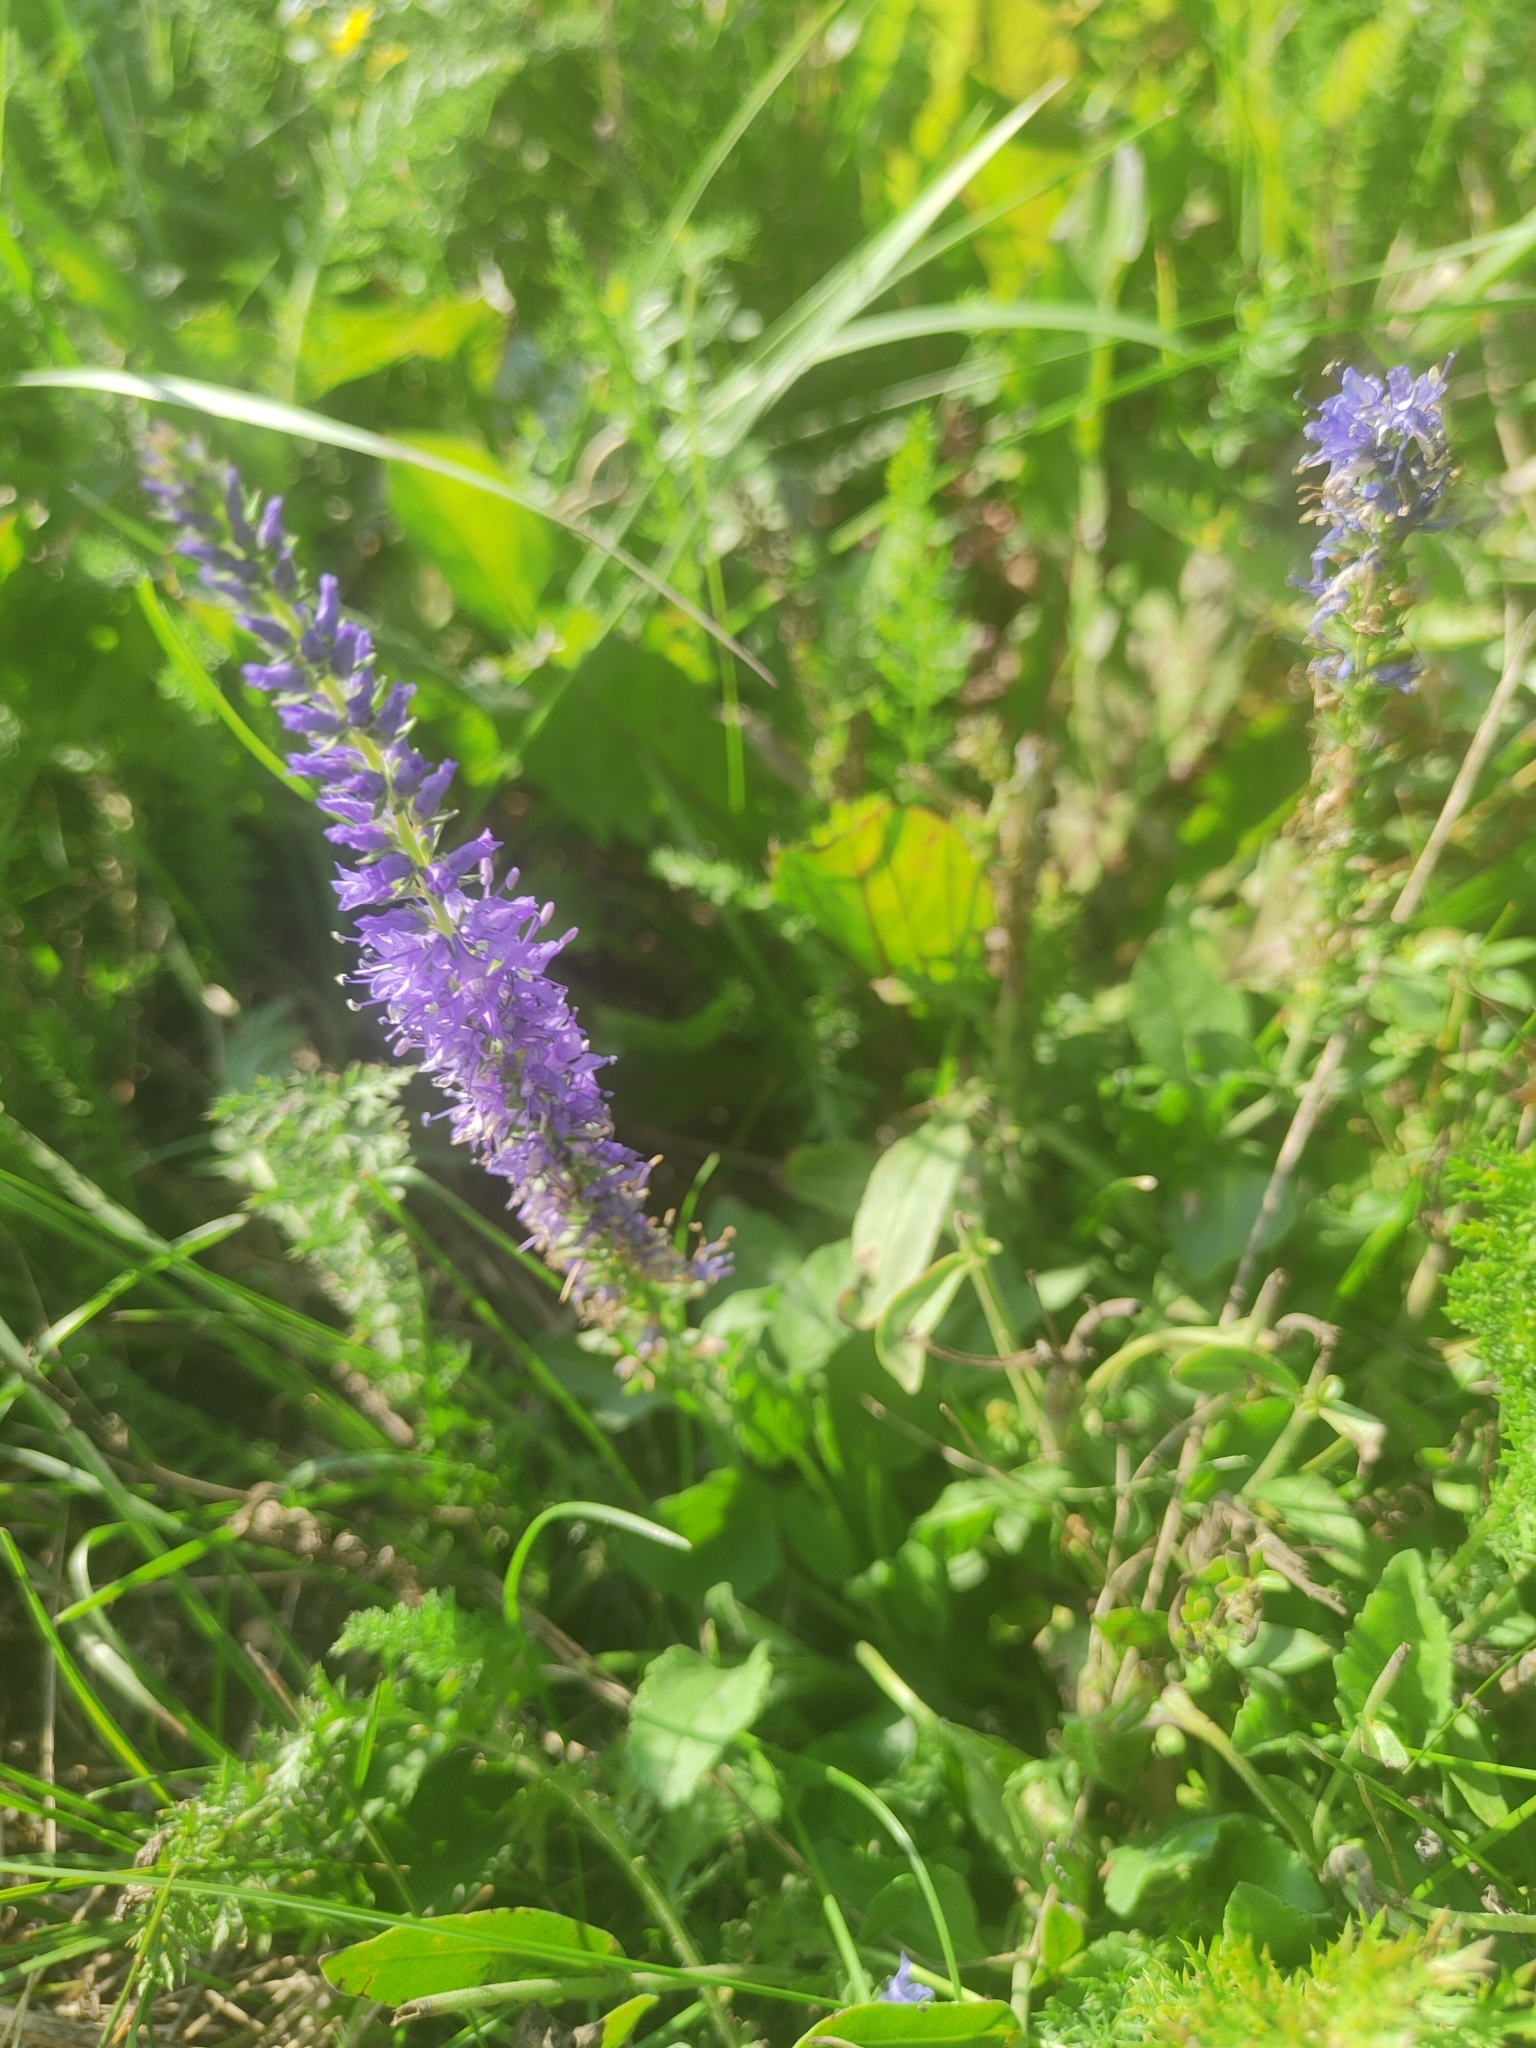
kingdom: Plantae
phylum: Tracheophyta
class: Magnoliopsida
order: Lamiales
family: Plantaginaceae
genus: Veronica
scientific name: Veronica spicata
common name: Spiked speedwell
